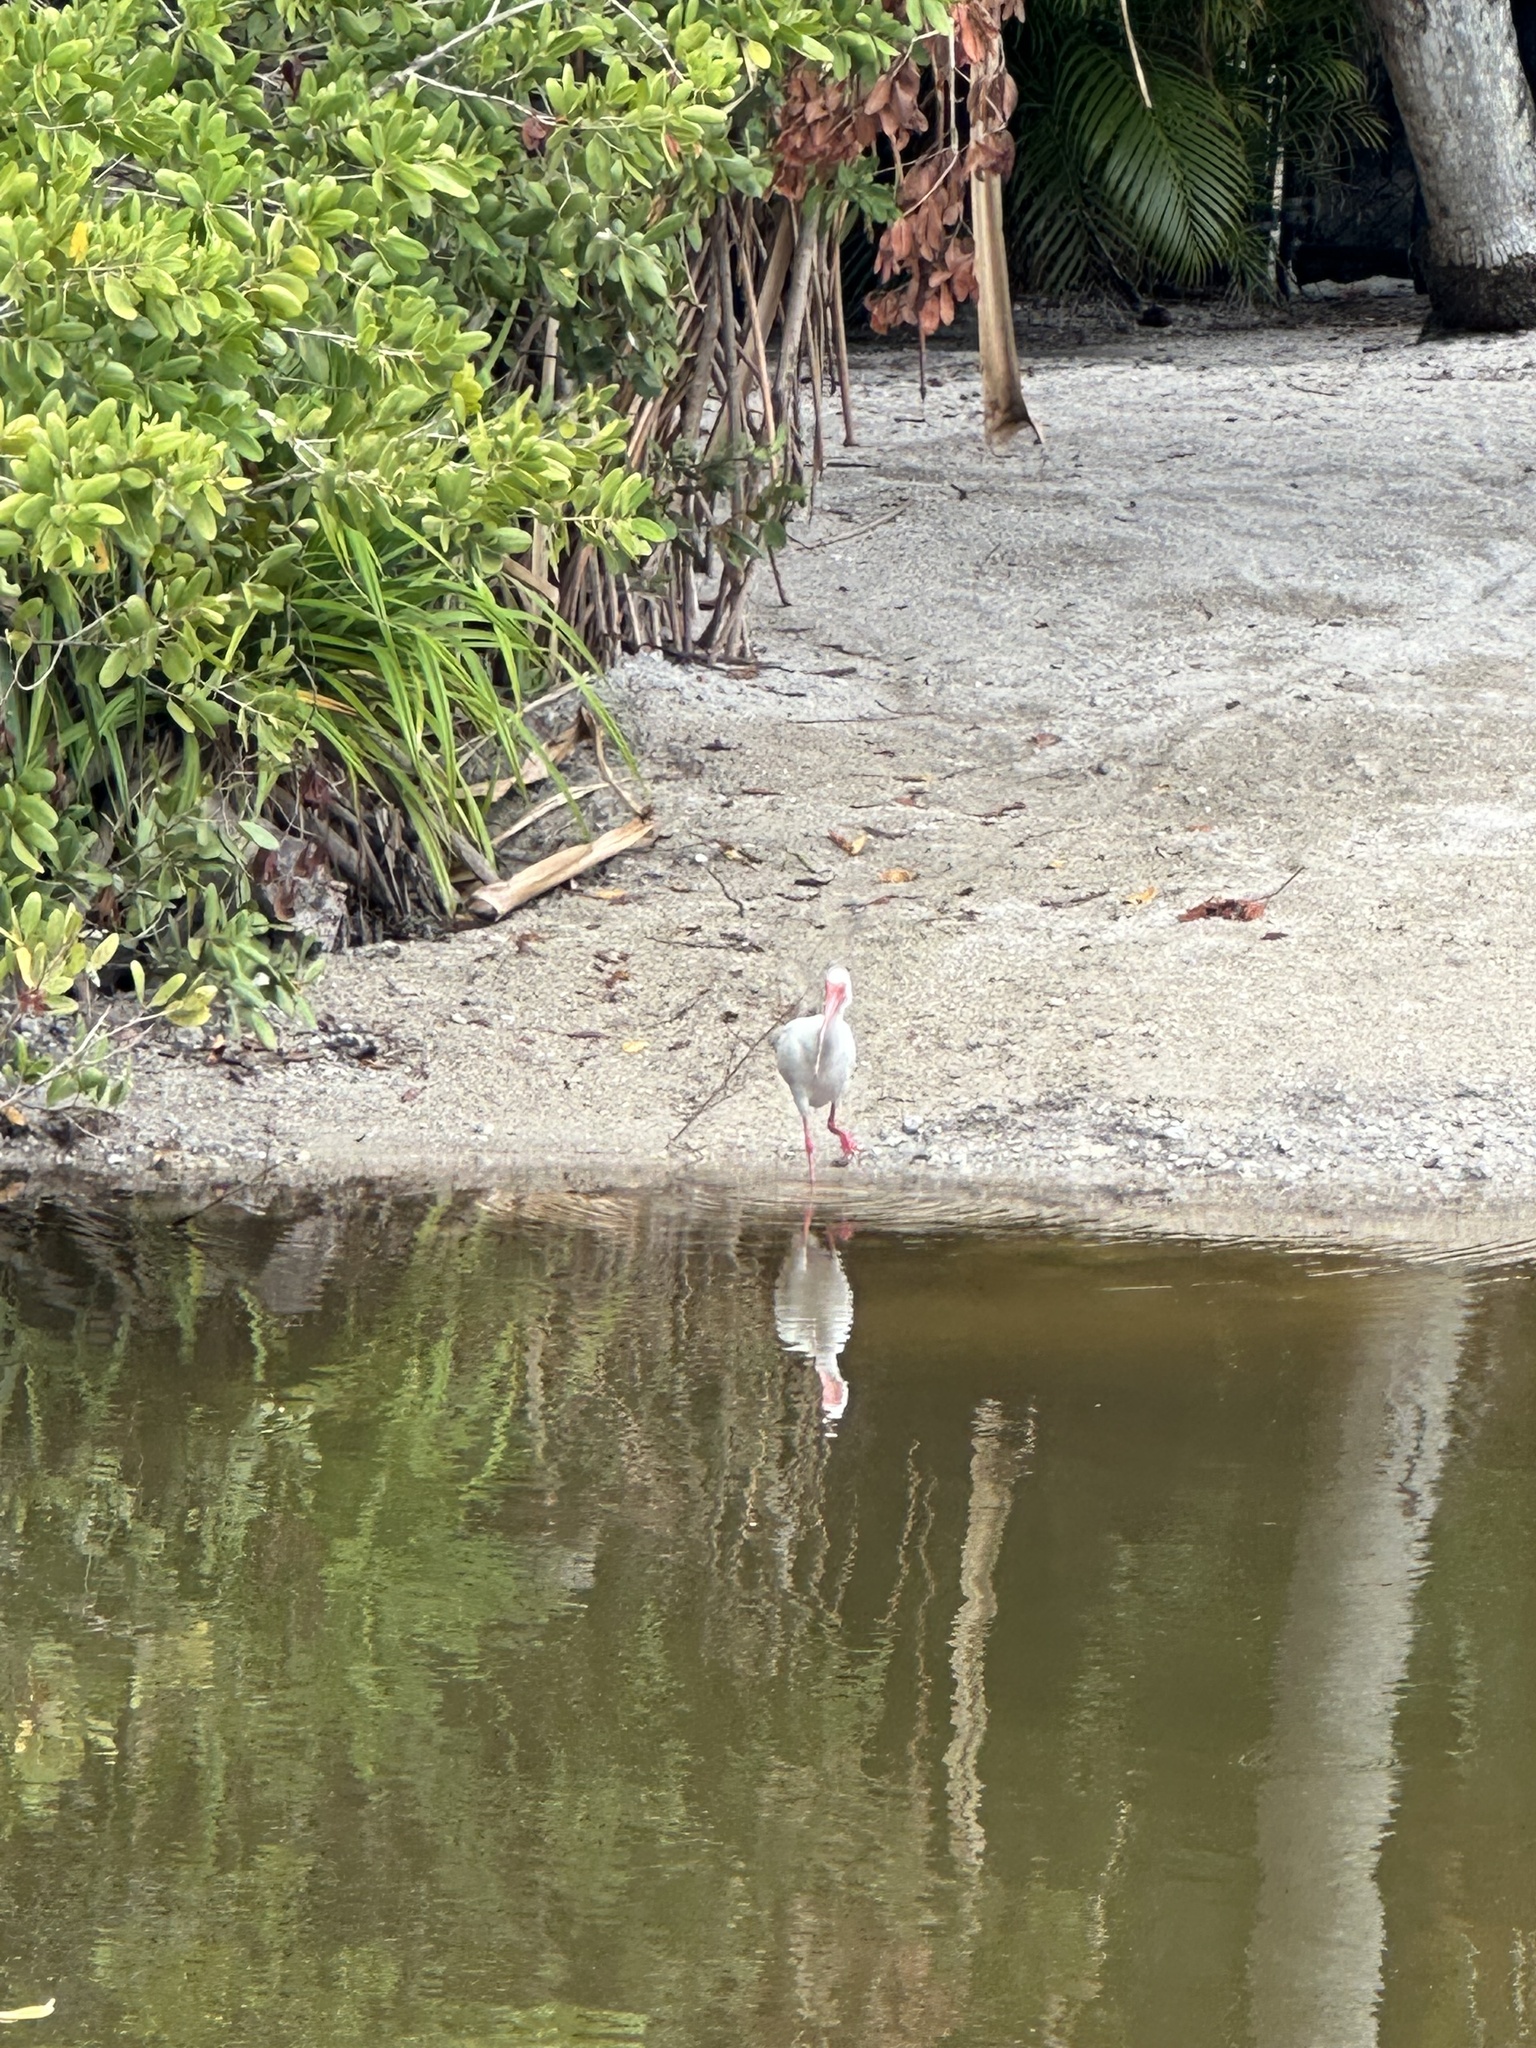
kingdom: Animalia
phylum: Chordata
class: Aves
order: Pelecaniformes
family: Threskiornithidae
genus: Eudocimus
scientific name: Eudocimus albus
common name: White ibis
